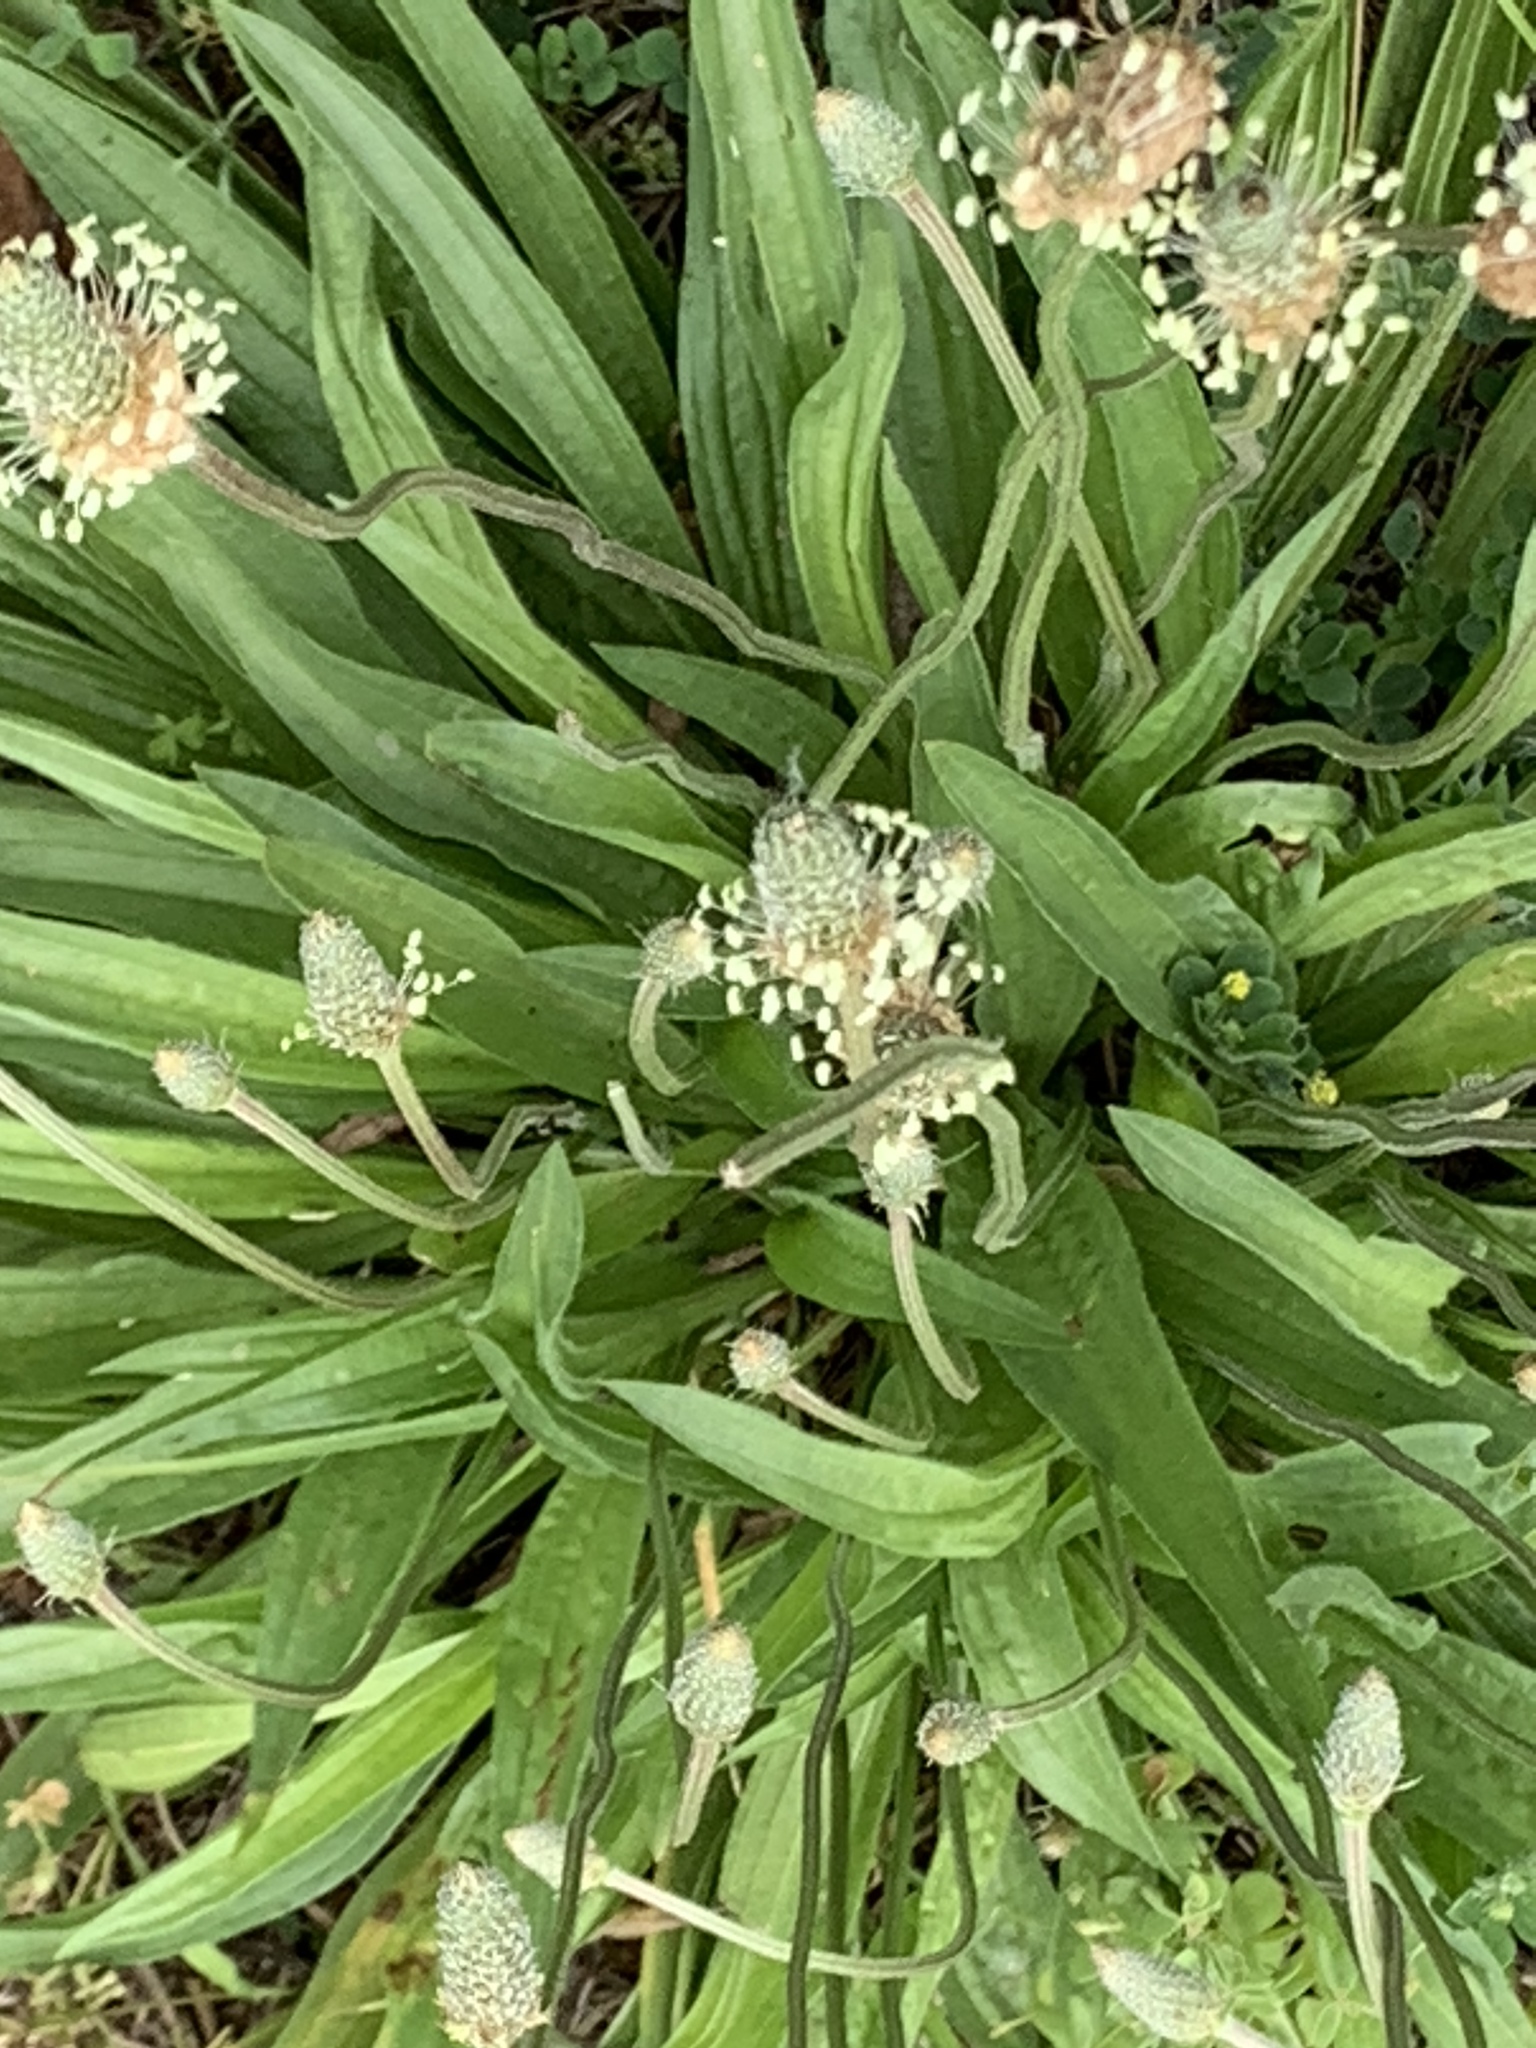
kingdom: Plantae
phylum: Tracheophyta
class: Magnoliopsida
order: Lamiales
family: Plantaginaceae
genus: Plantago
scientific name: Plantago lanceolata
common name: Ribwort plantain
